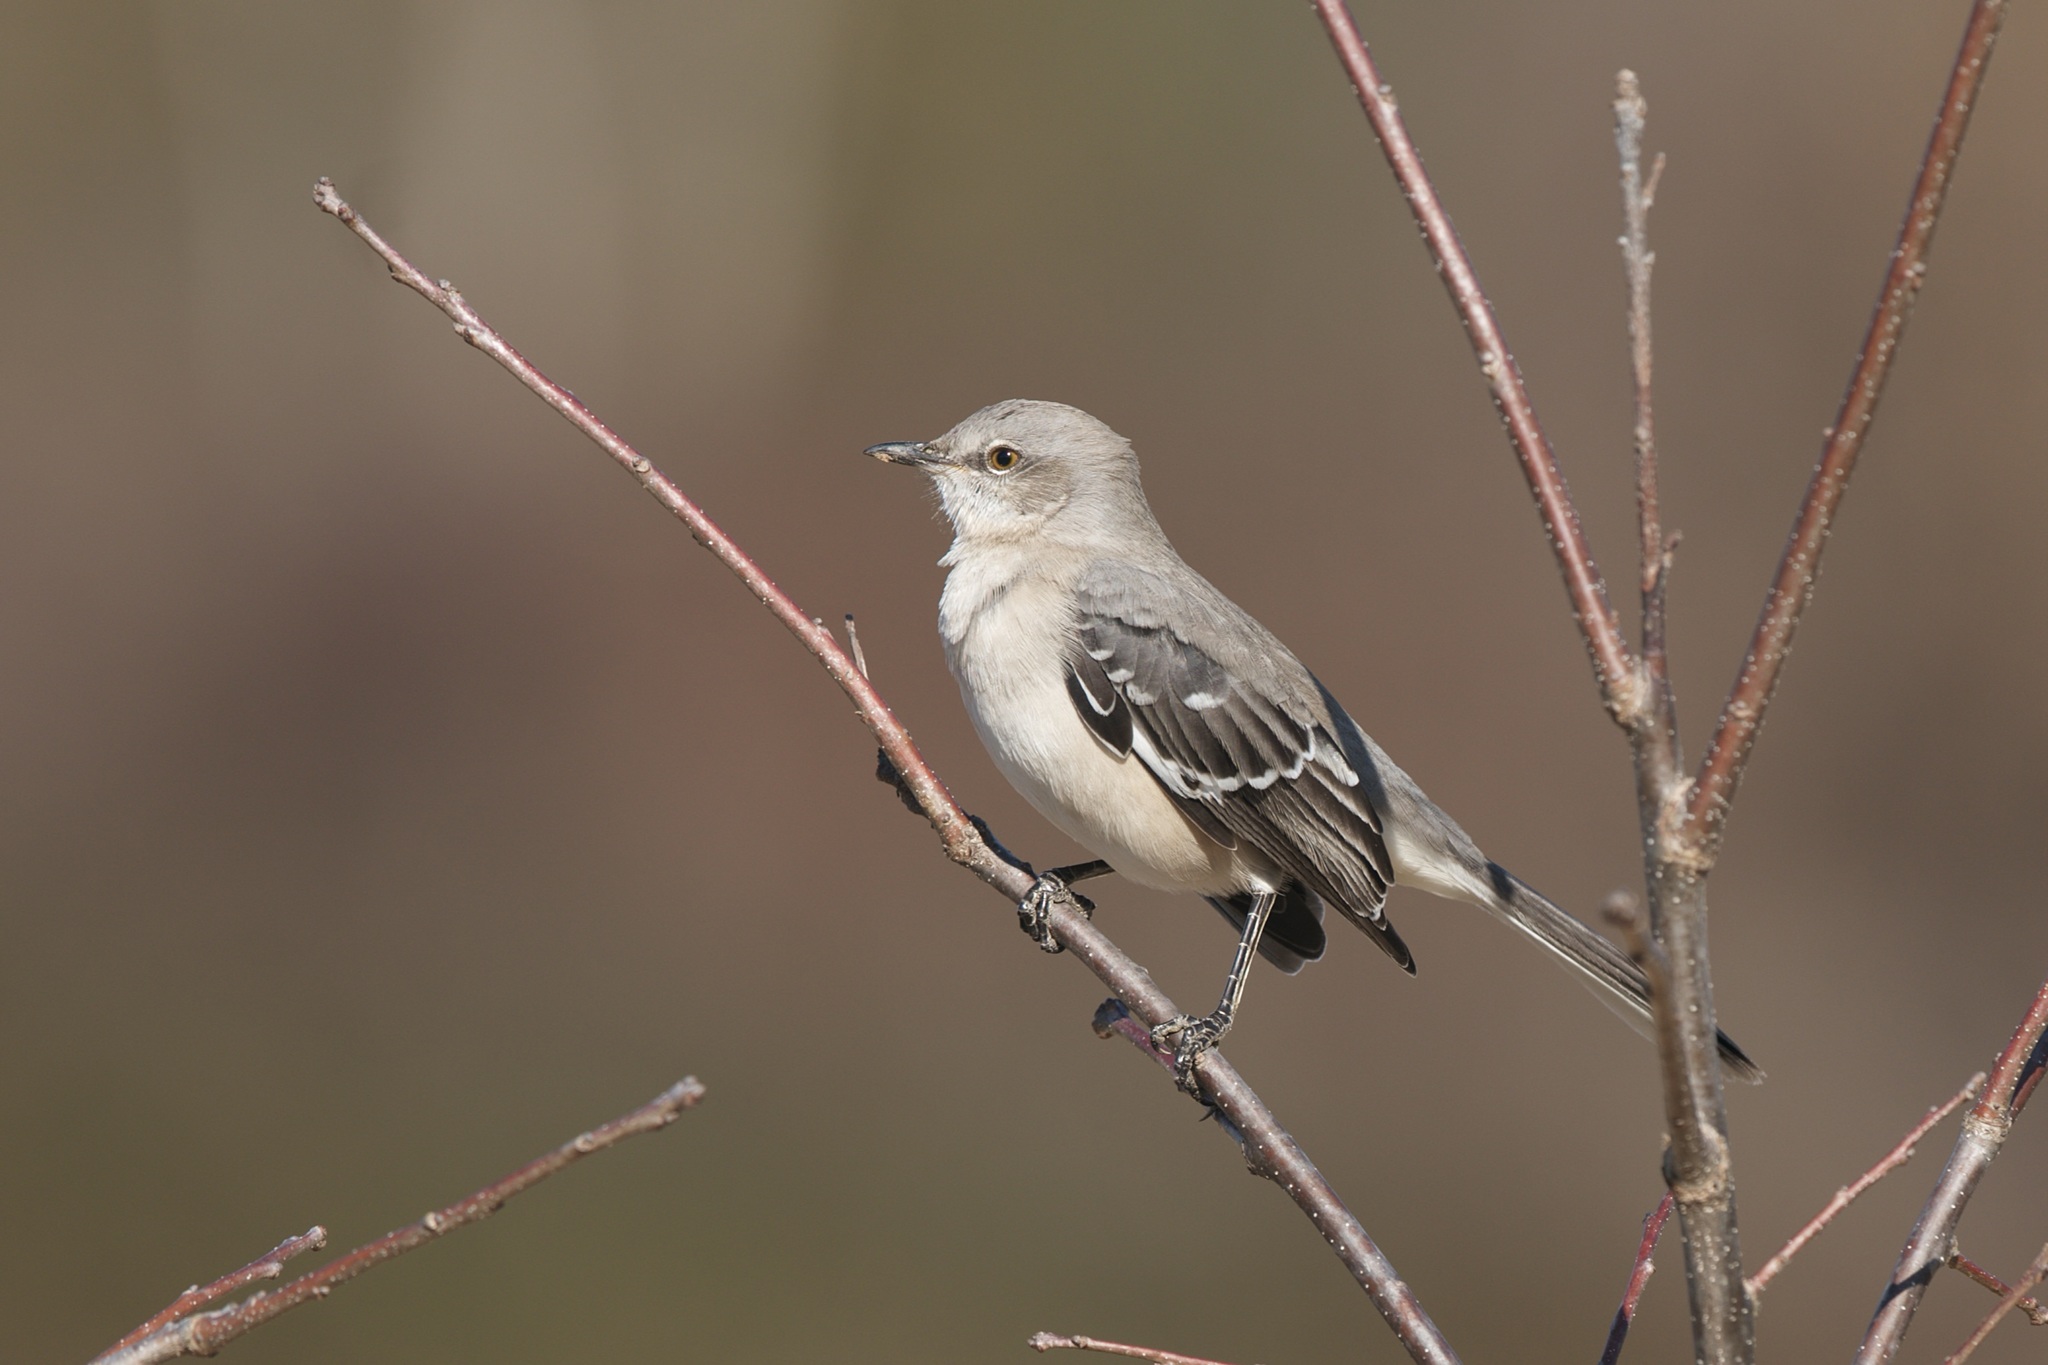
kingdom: Animalia
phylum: Chordata
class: Aves
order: Passeriformes
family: Mimidae
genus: Mimus
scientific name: Mimus polyglottos
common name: Northern mockingbird
